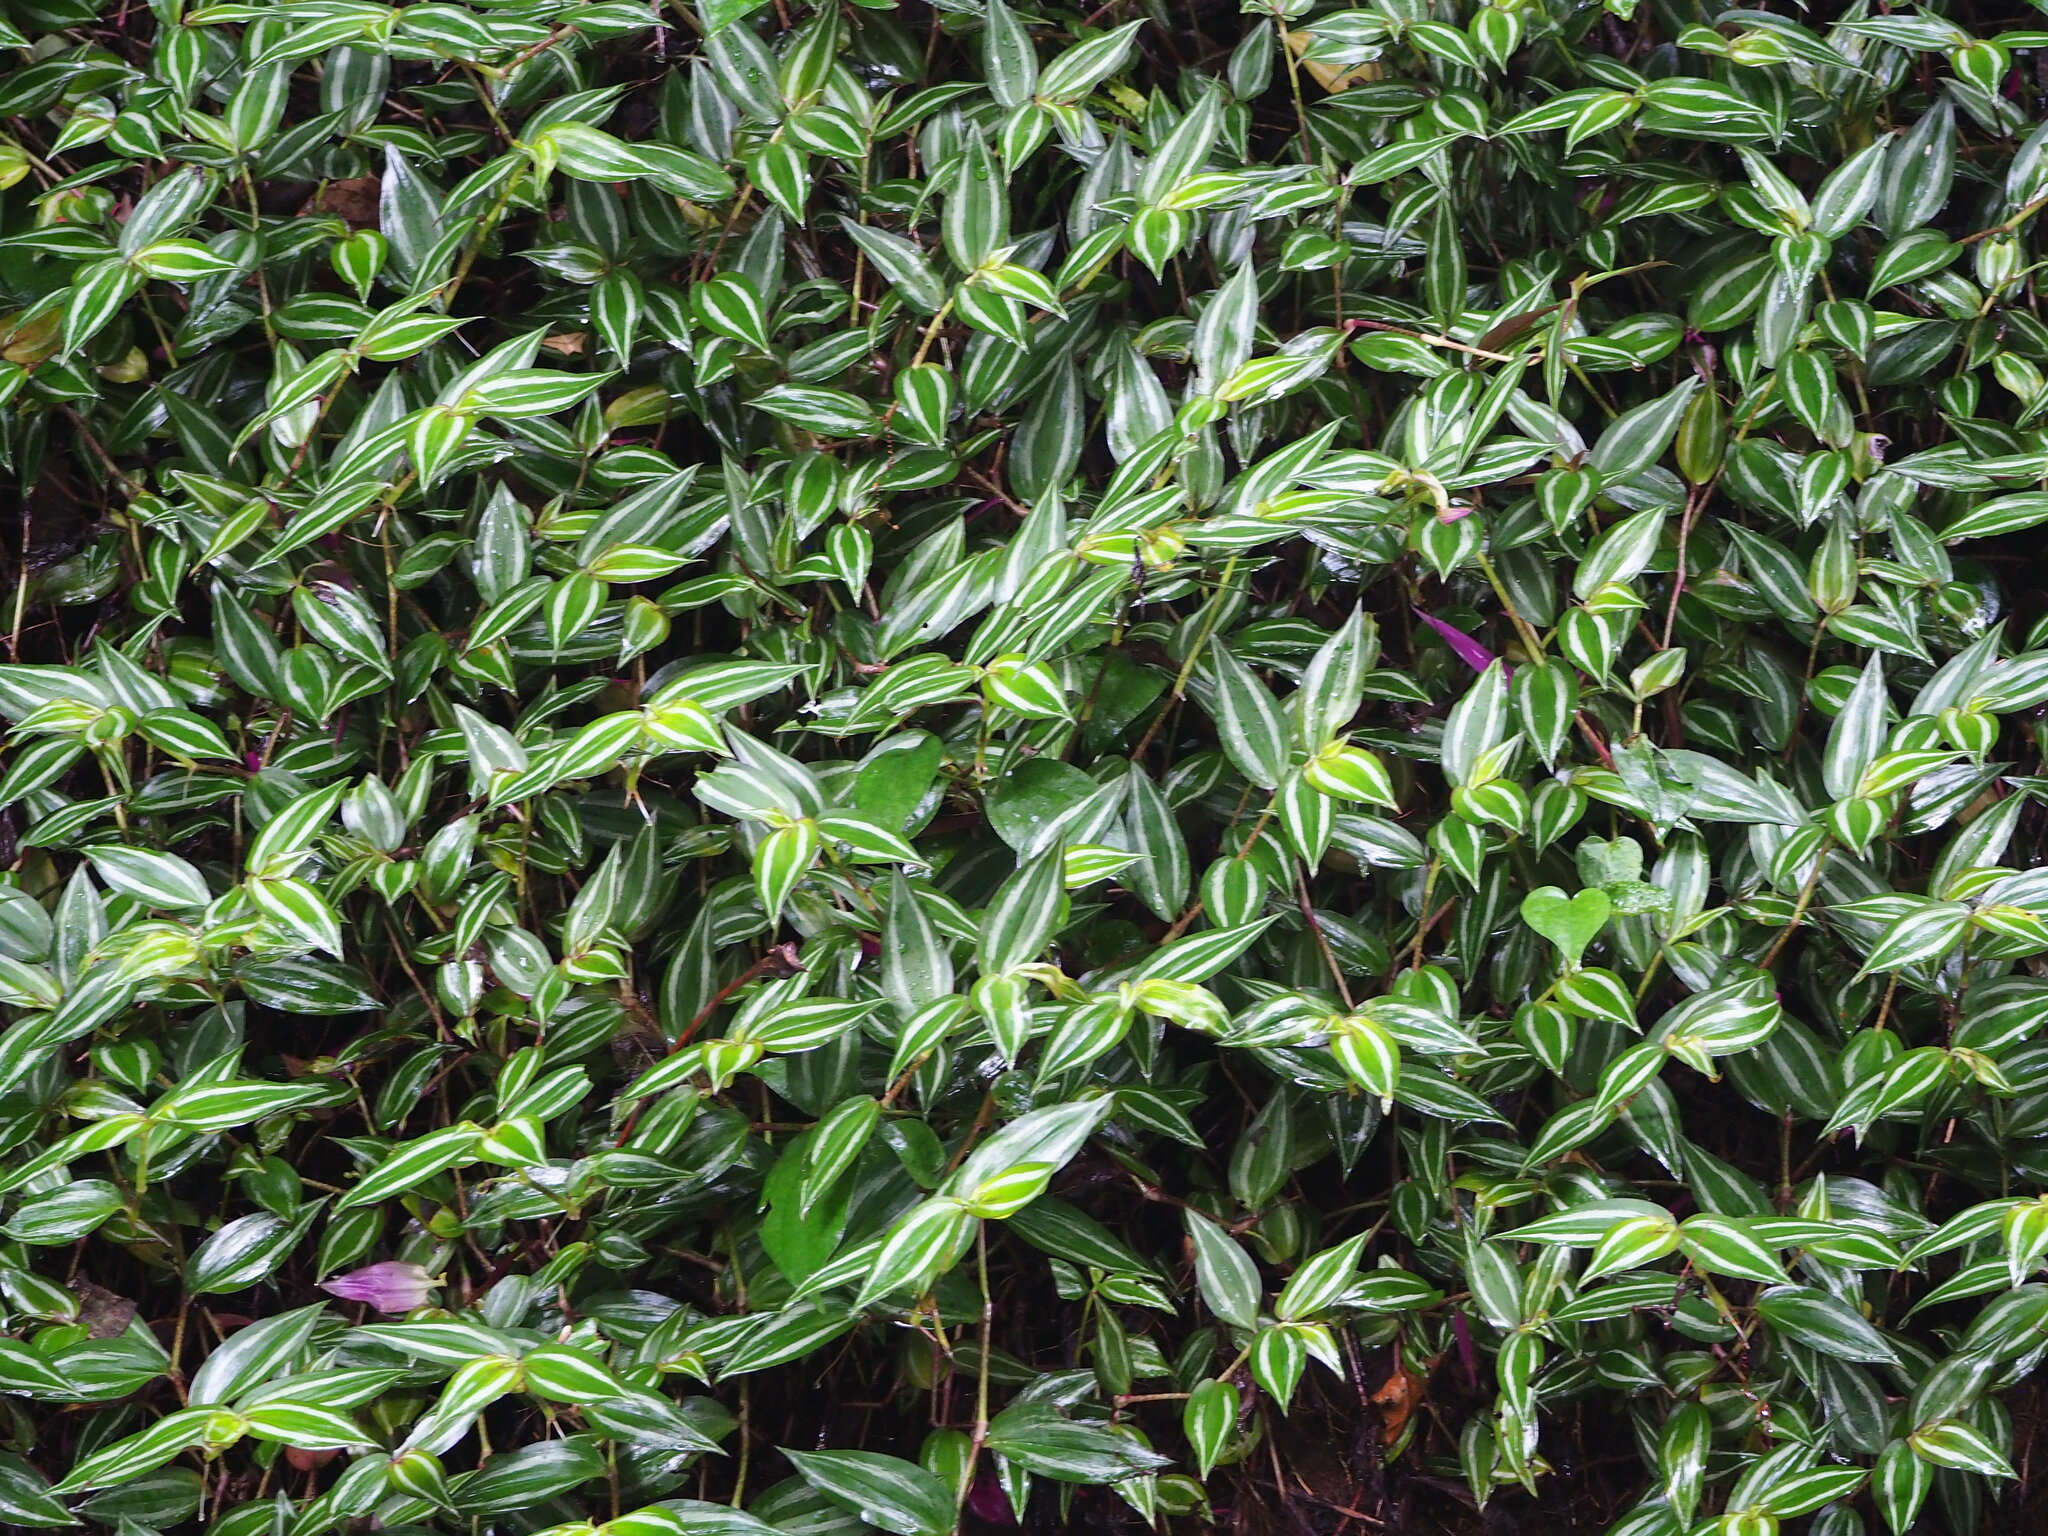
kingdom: Plantae
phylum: Tracheophyta
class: Liliopsida
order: Commelinales
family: Commelinaceae
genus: Tradescantia
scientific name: Tradescantia zebrina
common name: Inchplant
